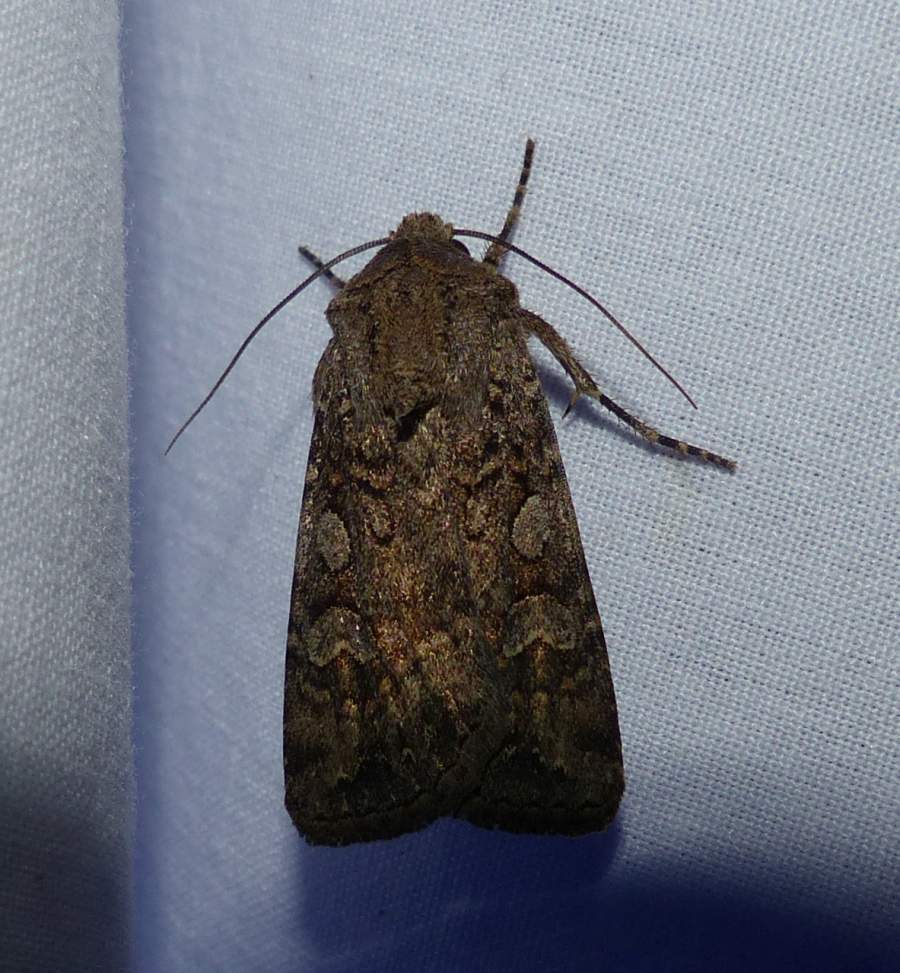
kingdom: Animalia
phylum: Arthropoda
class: Insecta
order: Lepidoptera
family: Noctuidae
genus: Euxoa
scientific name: Euxoa messoria
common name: Darksided cutworm
